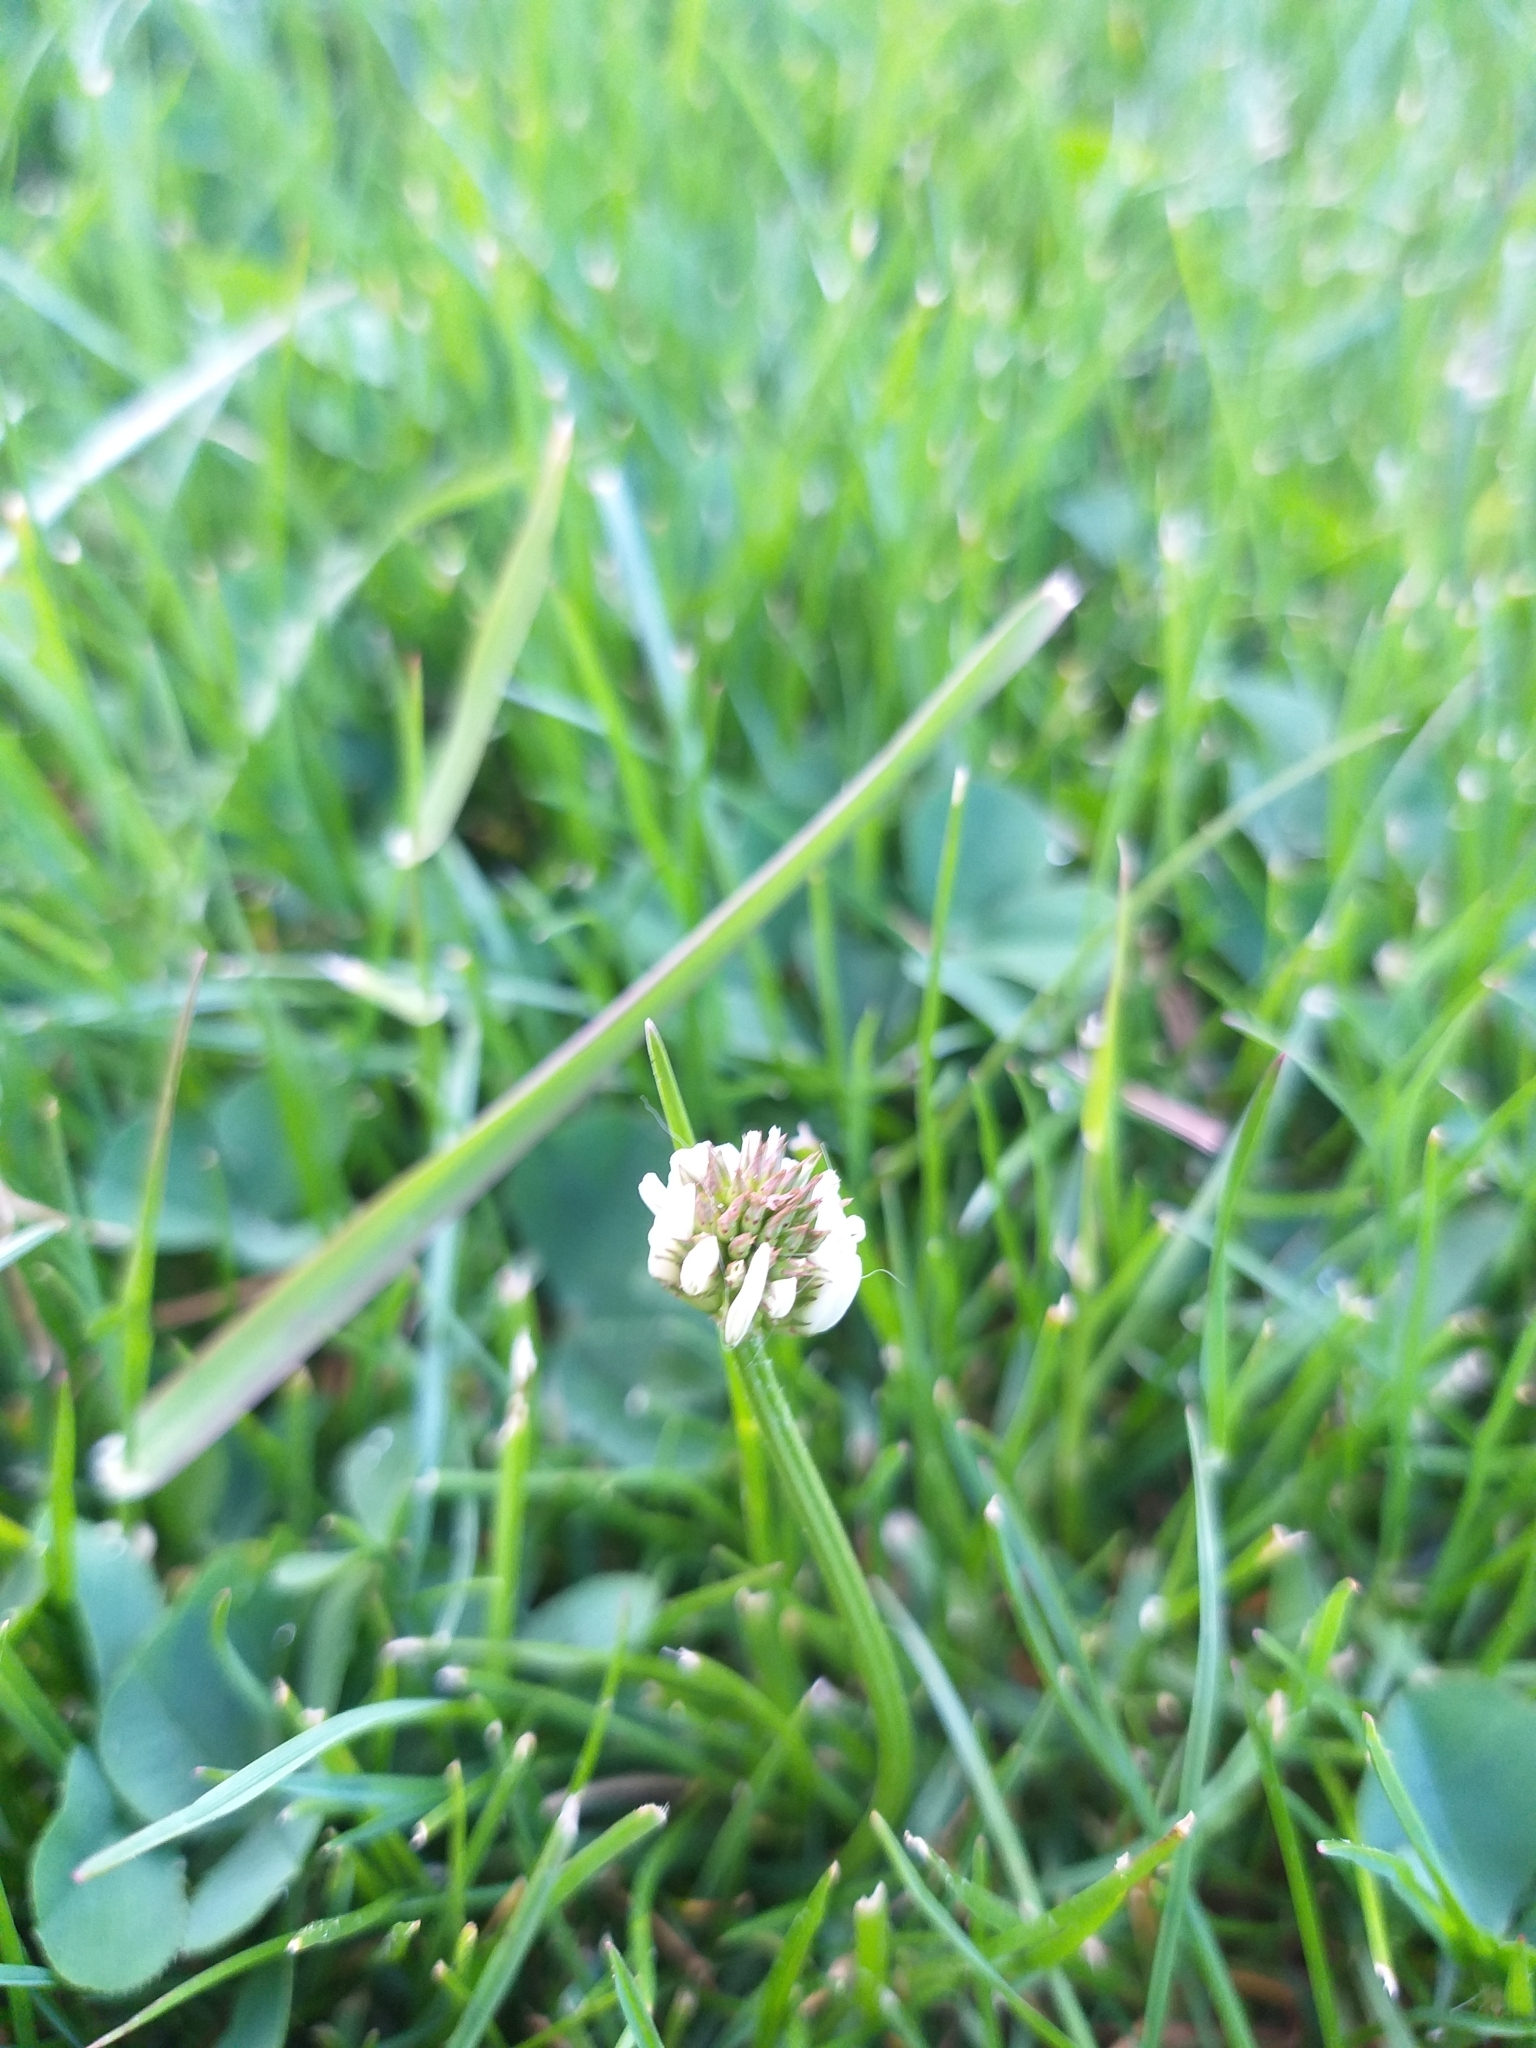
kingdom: Plantae
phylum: Tracheophyta
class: Magnoliopsida
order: Fabales
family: Fabaceae
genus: Trifolium
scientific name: Trifolium repens
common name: White clover
